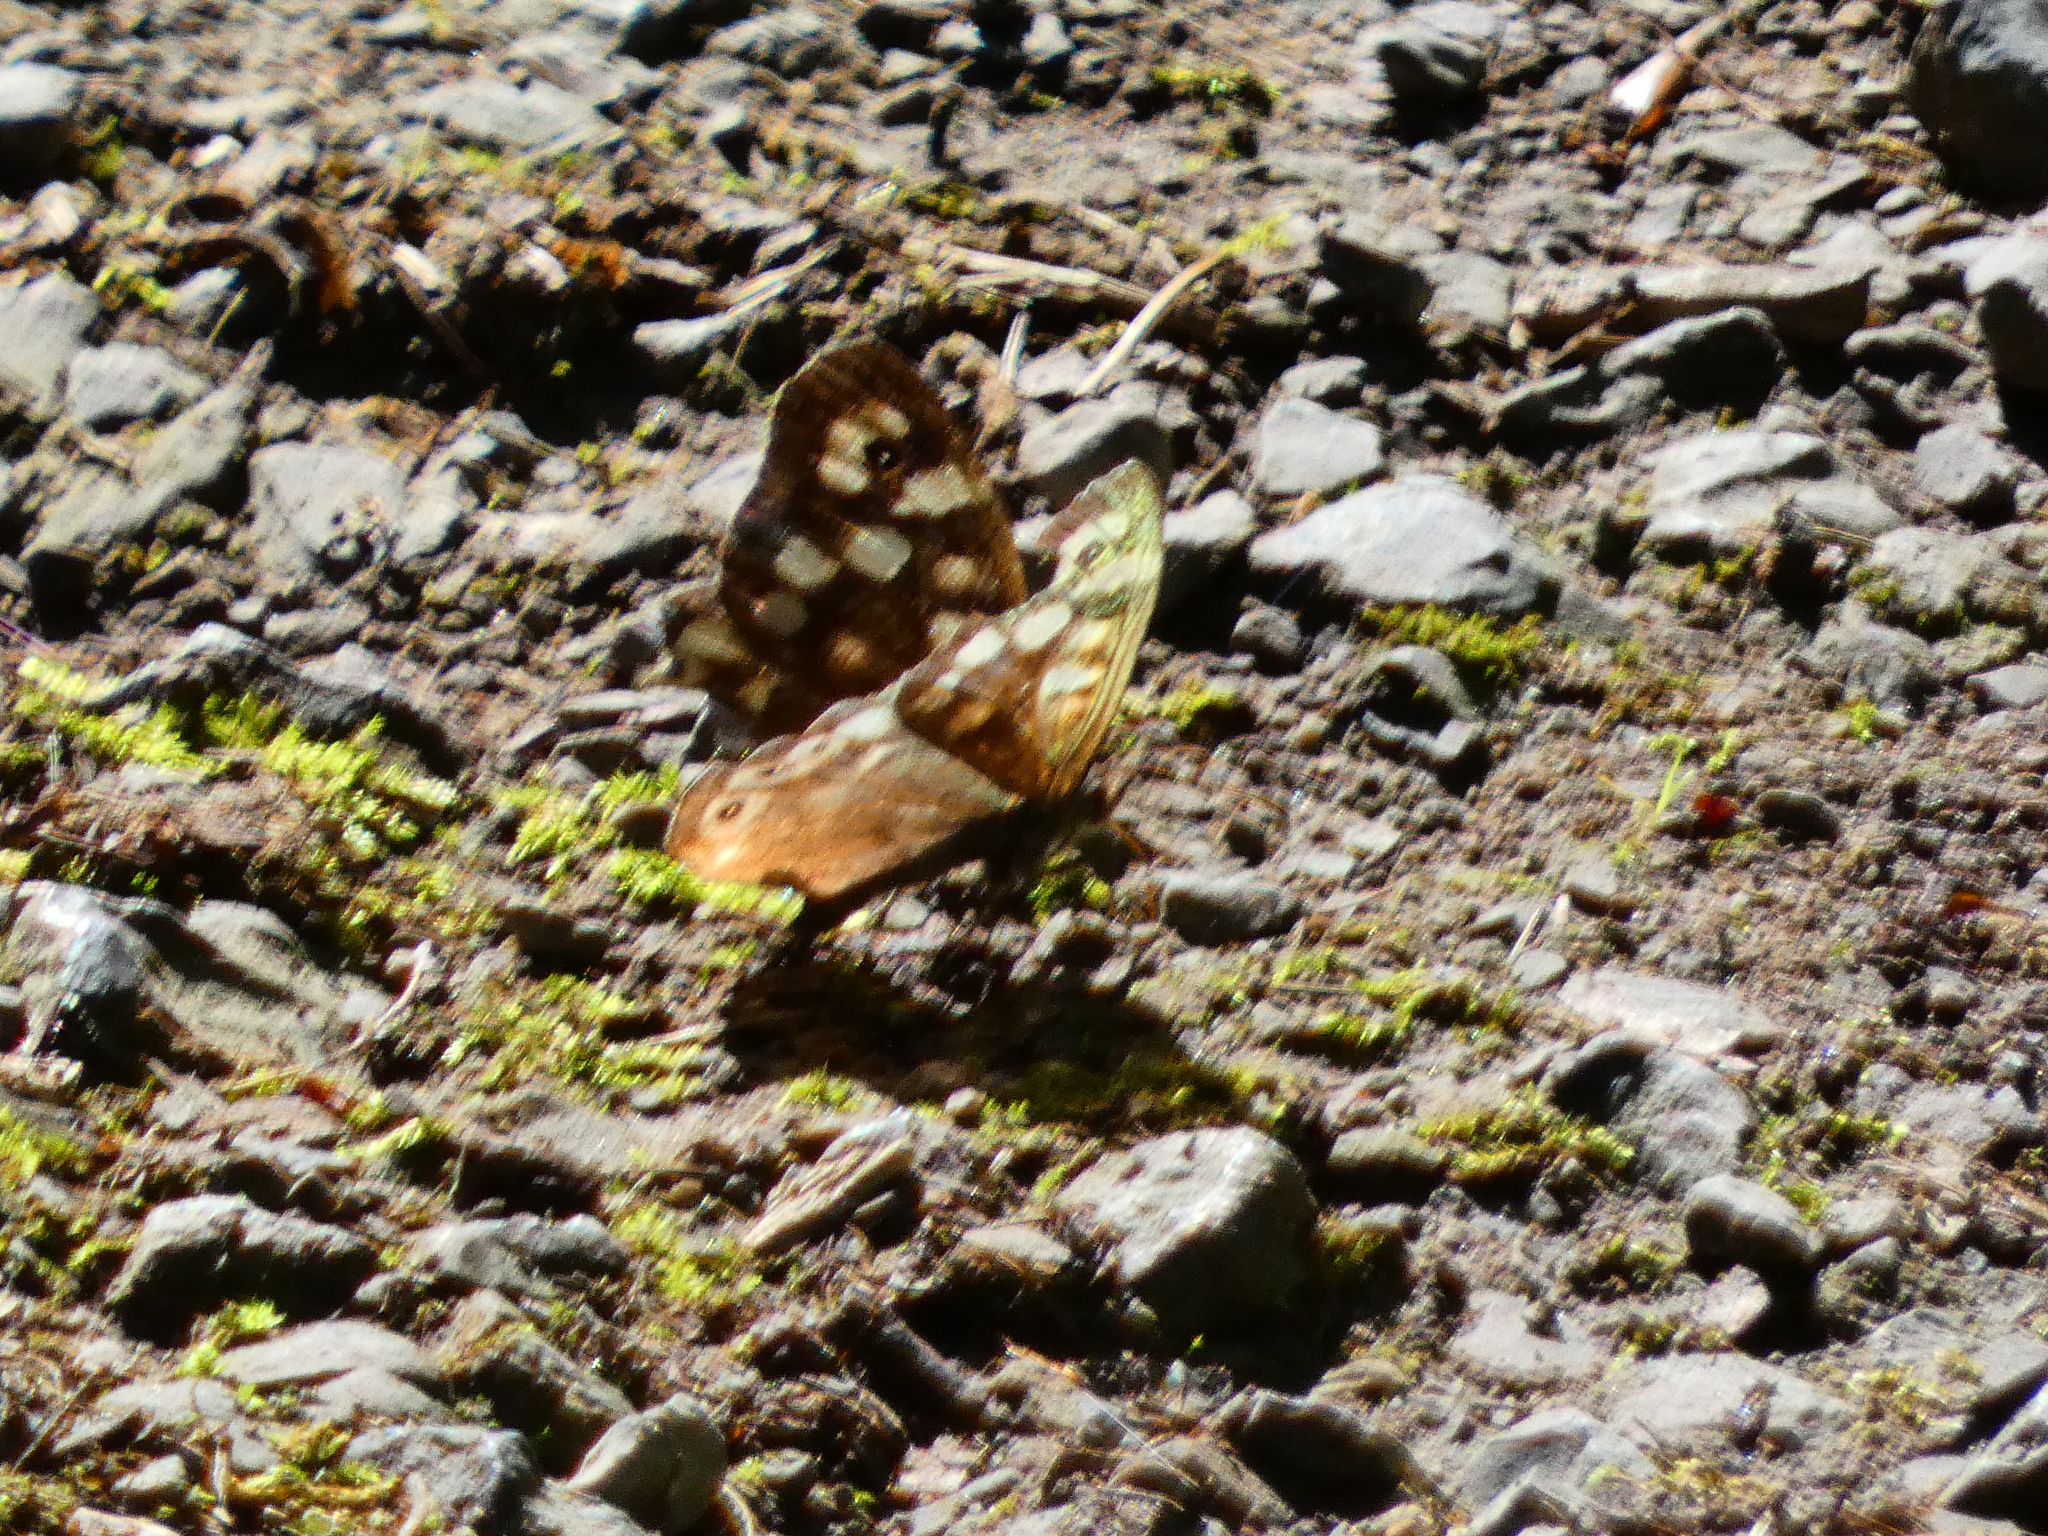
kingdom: Animalia
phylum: Arthropoda
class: Insecta
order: Lepidoptera
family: Nymphalidae
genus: Pararge
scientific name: Pararge aegeria
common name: Speckled wood
